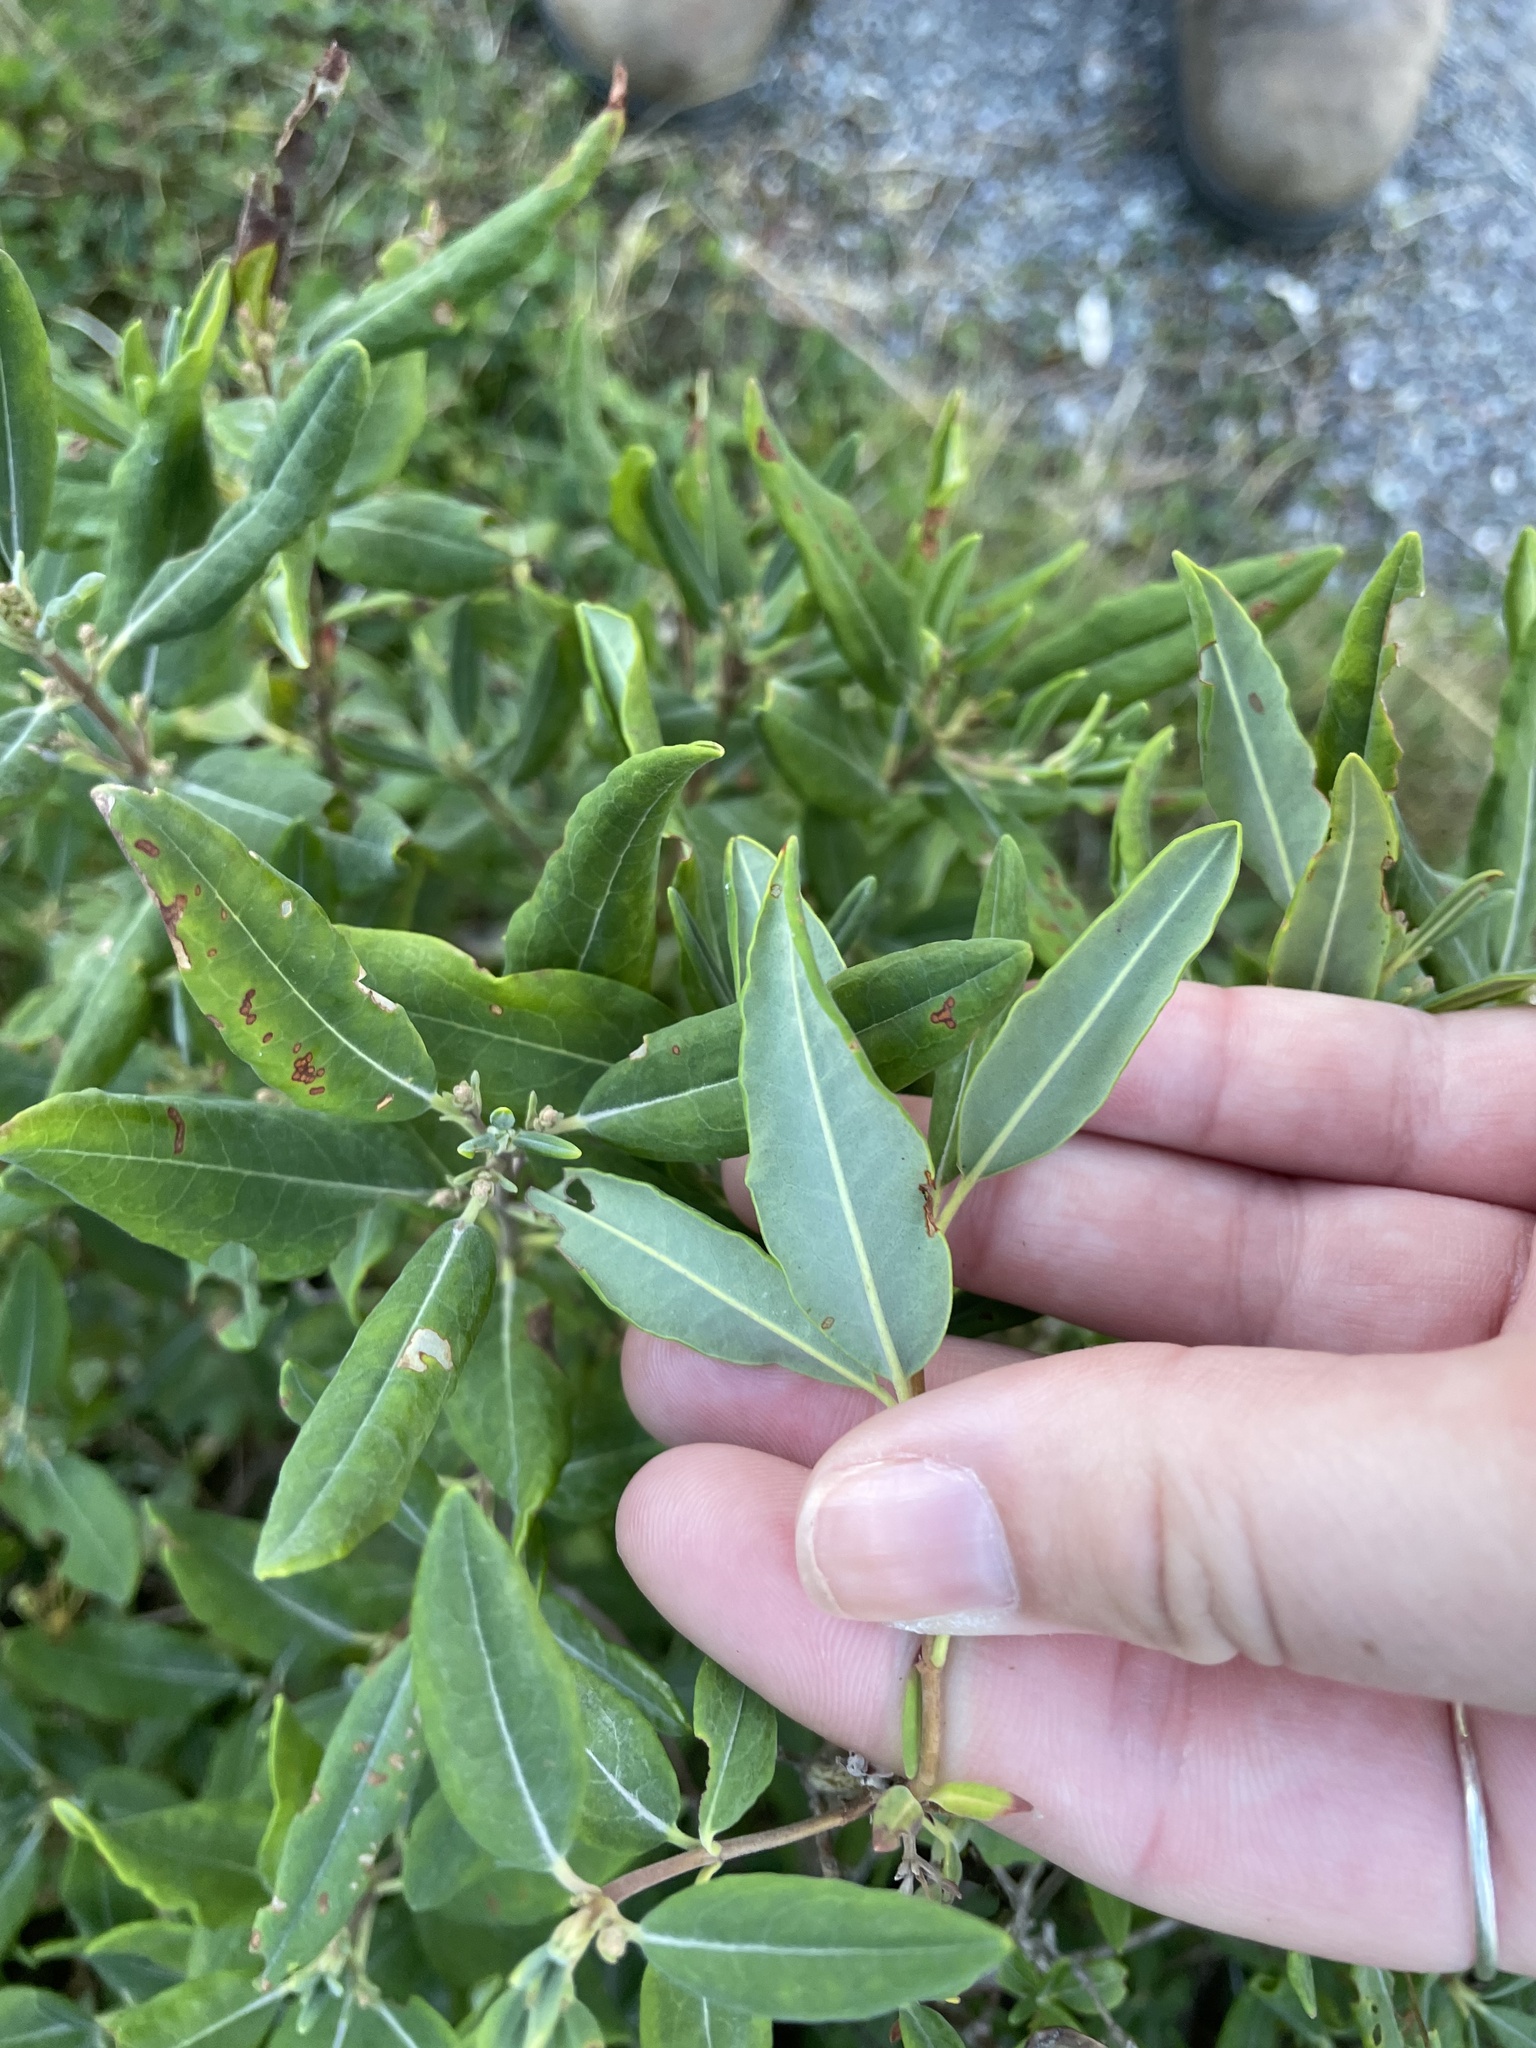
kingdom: Plantae
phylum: Tracheophyta
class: Magnoliopsida
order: Ericales
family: Ericaceae
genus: Kalmia
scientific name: Kalmia angustifolia
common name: Sheep-laurel
